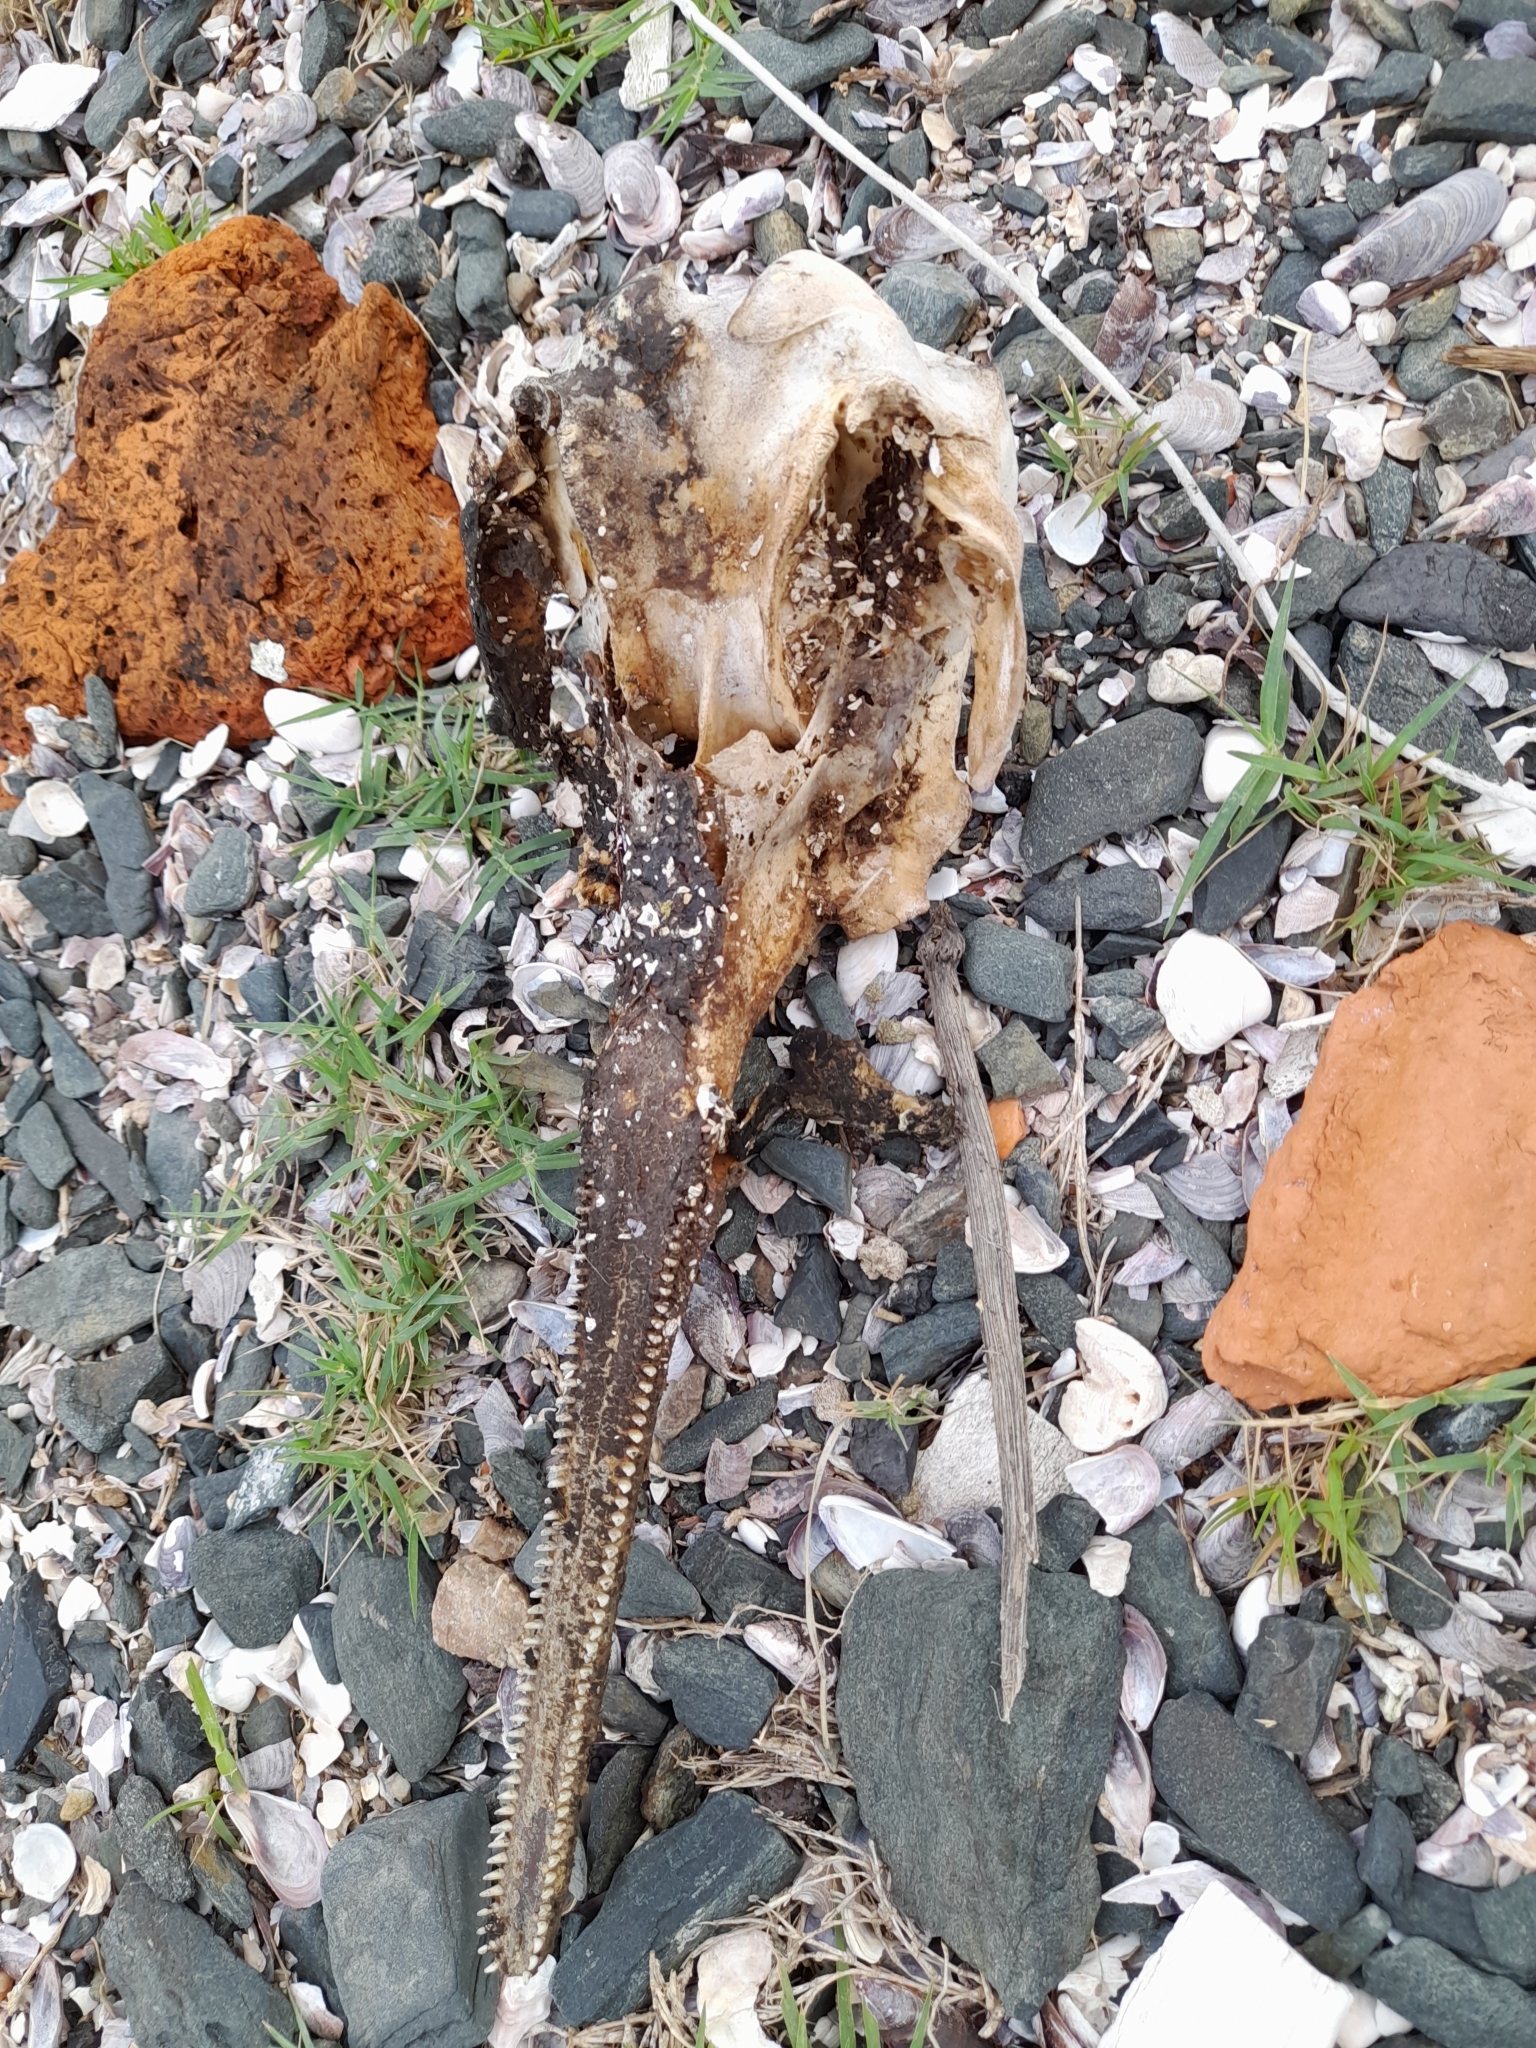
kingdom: Animalia
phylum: Chordata
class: Mammalia
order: Cetacea
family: Pontoporiidae
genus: Pontoporia
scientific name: Pontoporia blainvillei
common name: Franciscana
